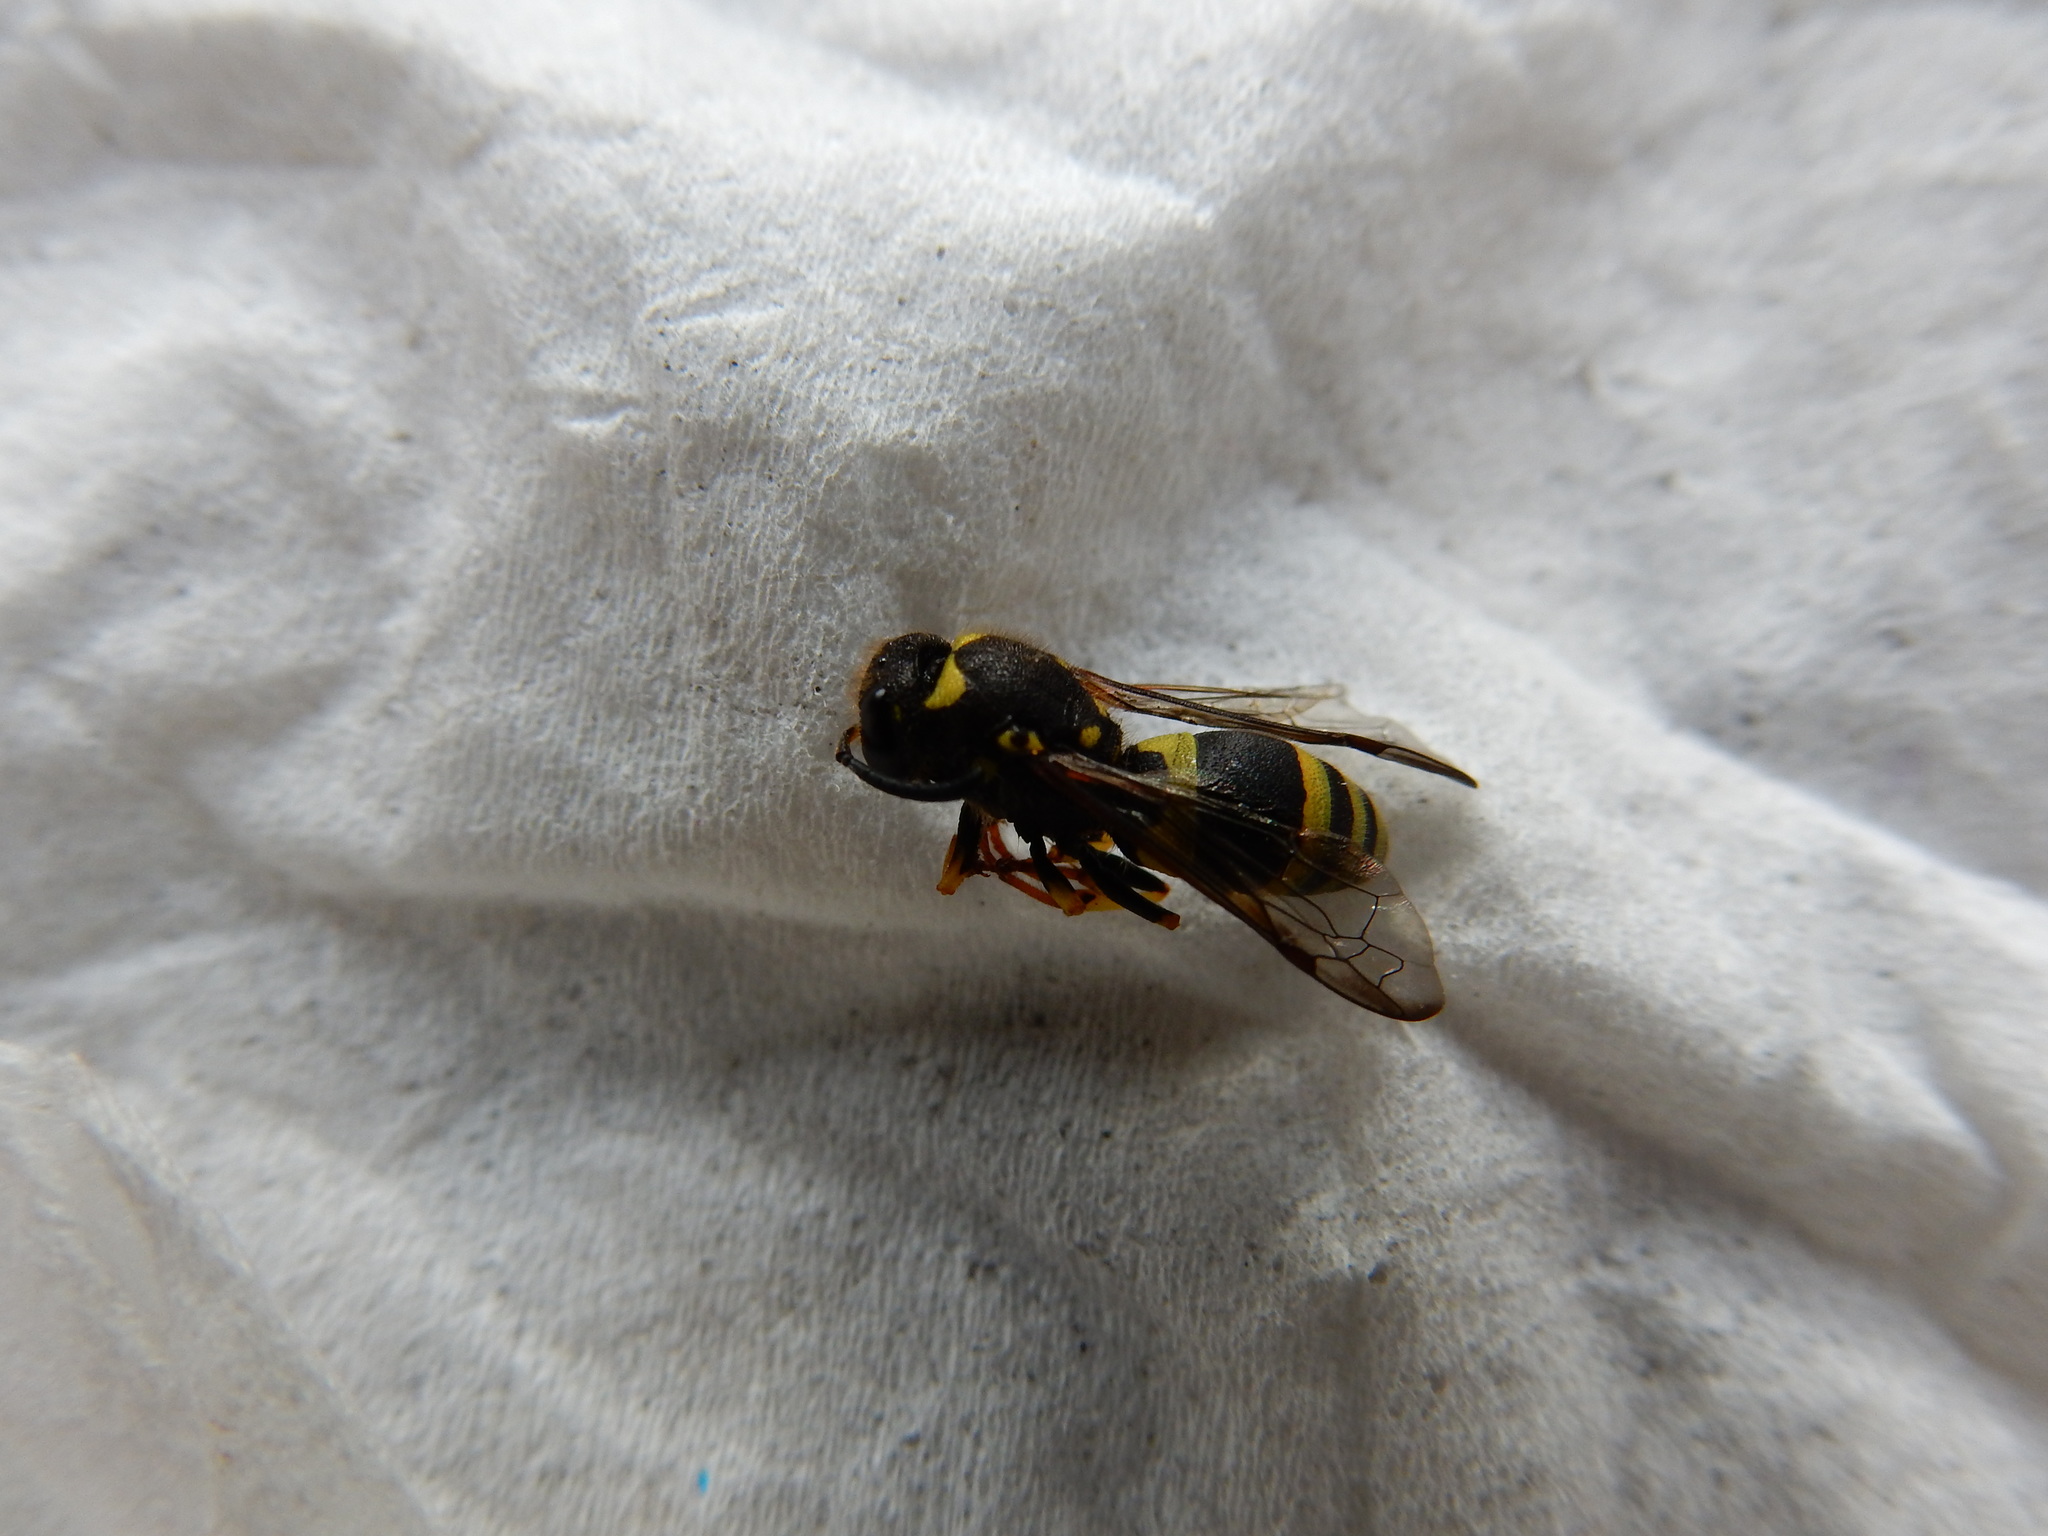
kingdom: Animalia
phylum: Arthropoda
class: Insecta
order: Hymenoptera
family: Vespidae
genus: Ancistrocerus
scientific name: Ancistrocerus gazella
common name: European tube wasp
